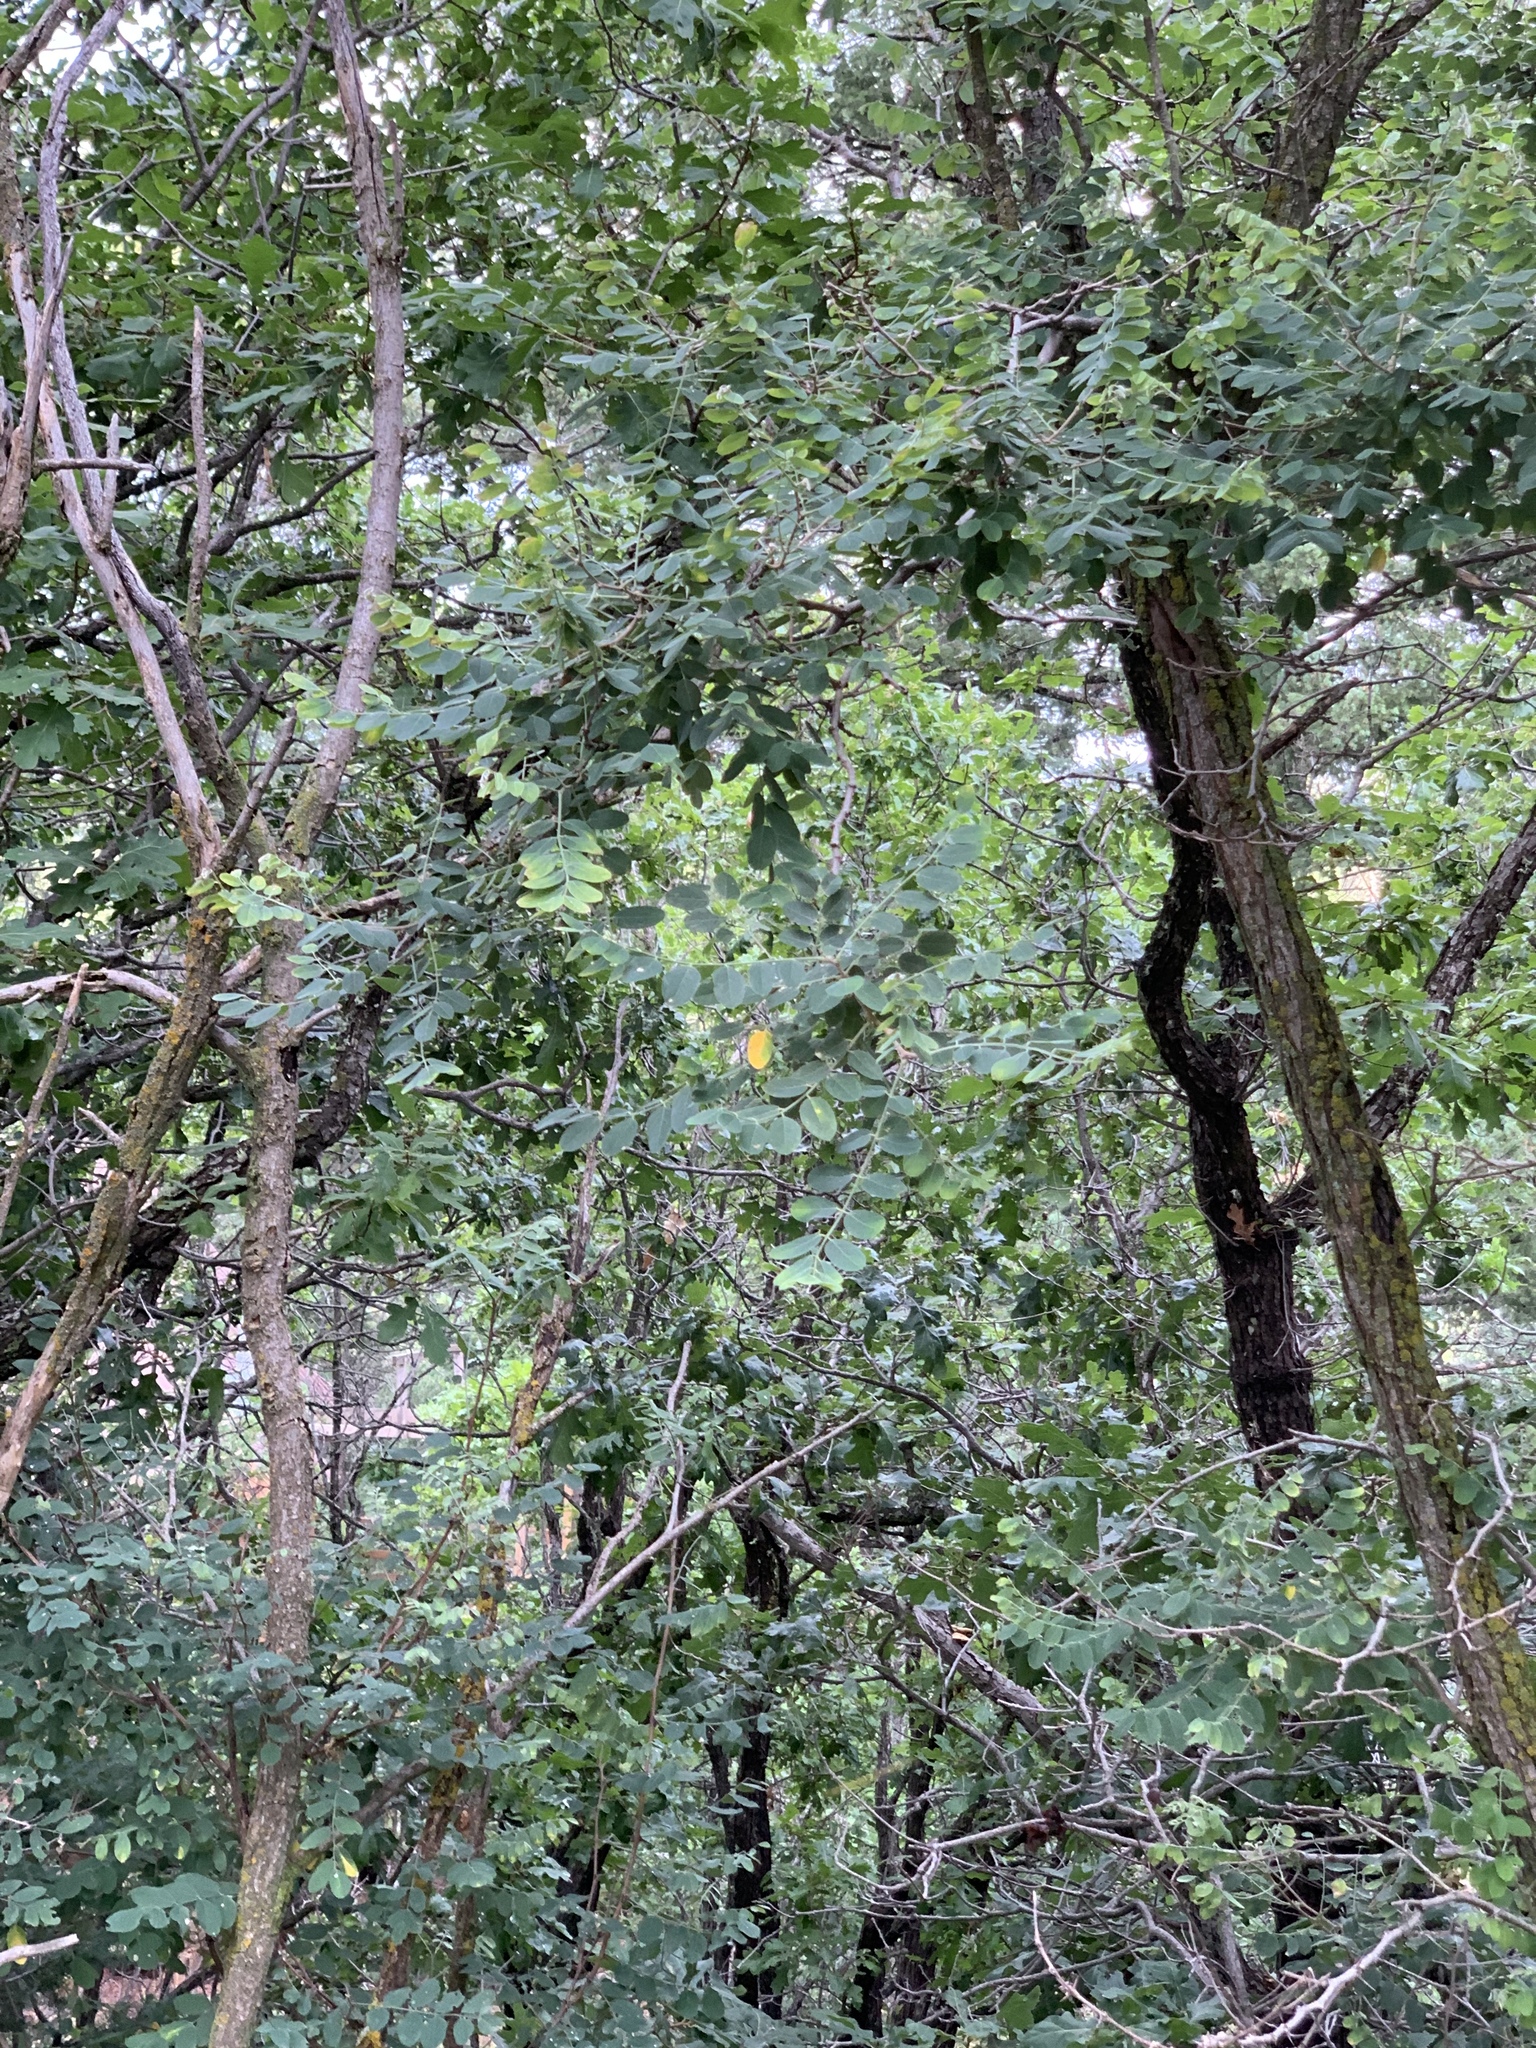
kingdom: Plantae
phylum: Tracheophyta
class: Magnoliopsida
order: Fabales
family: Fabaceae
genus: Robinia
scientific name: Robinia neomexicana
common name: New mexico locust
